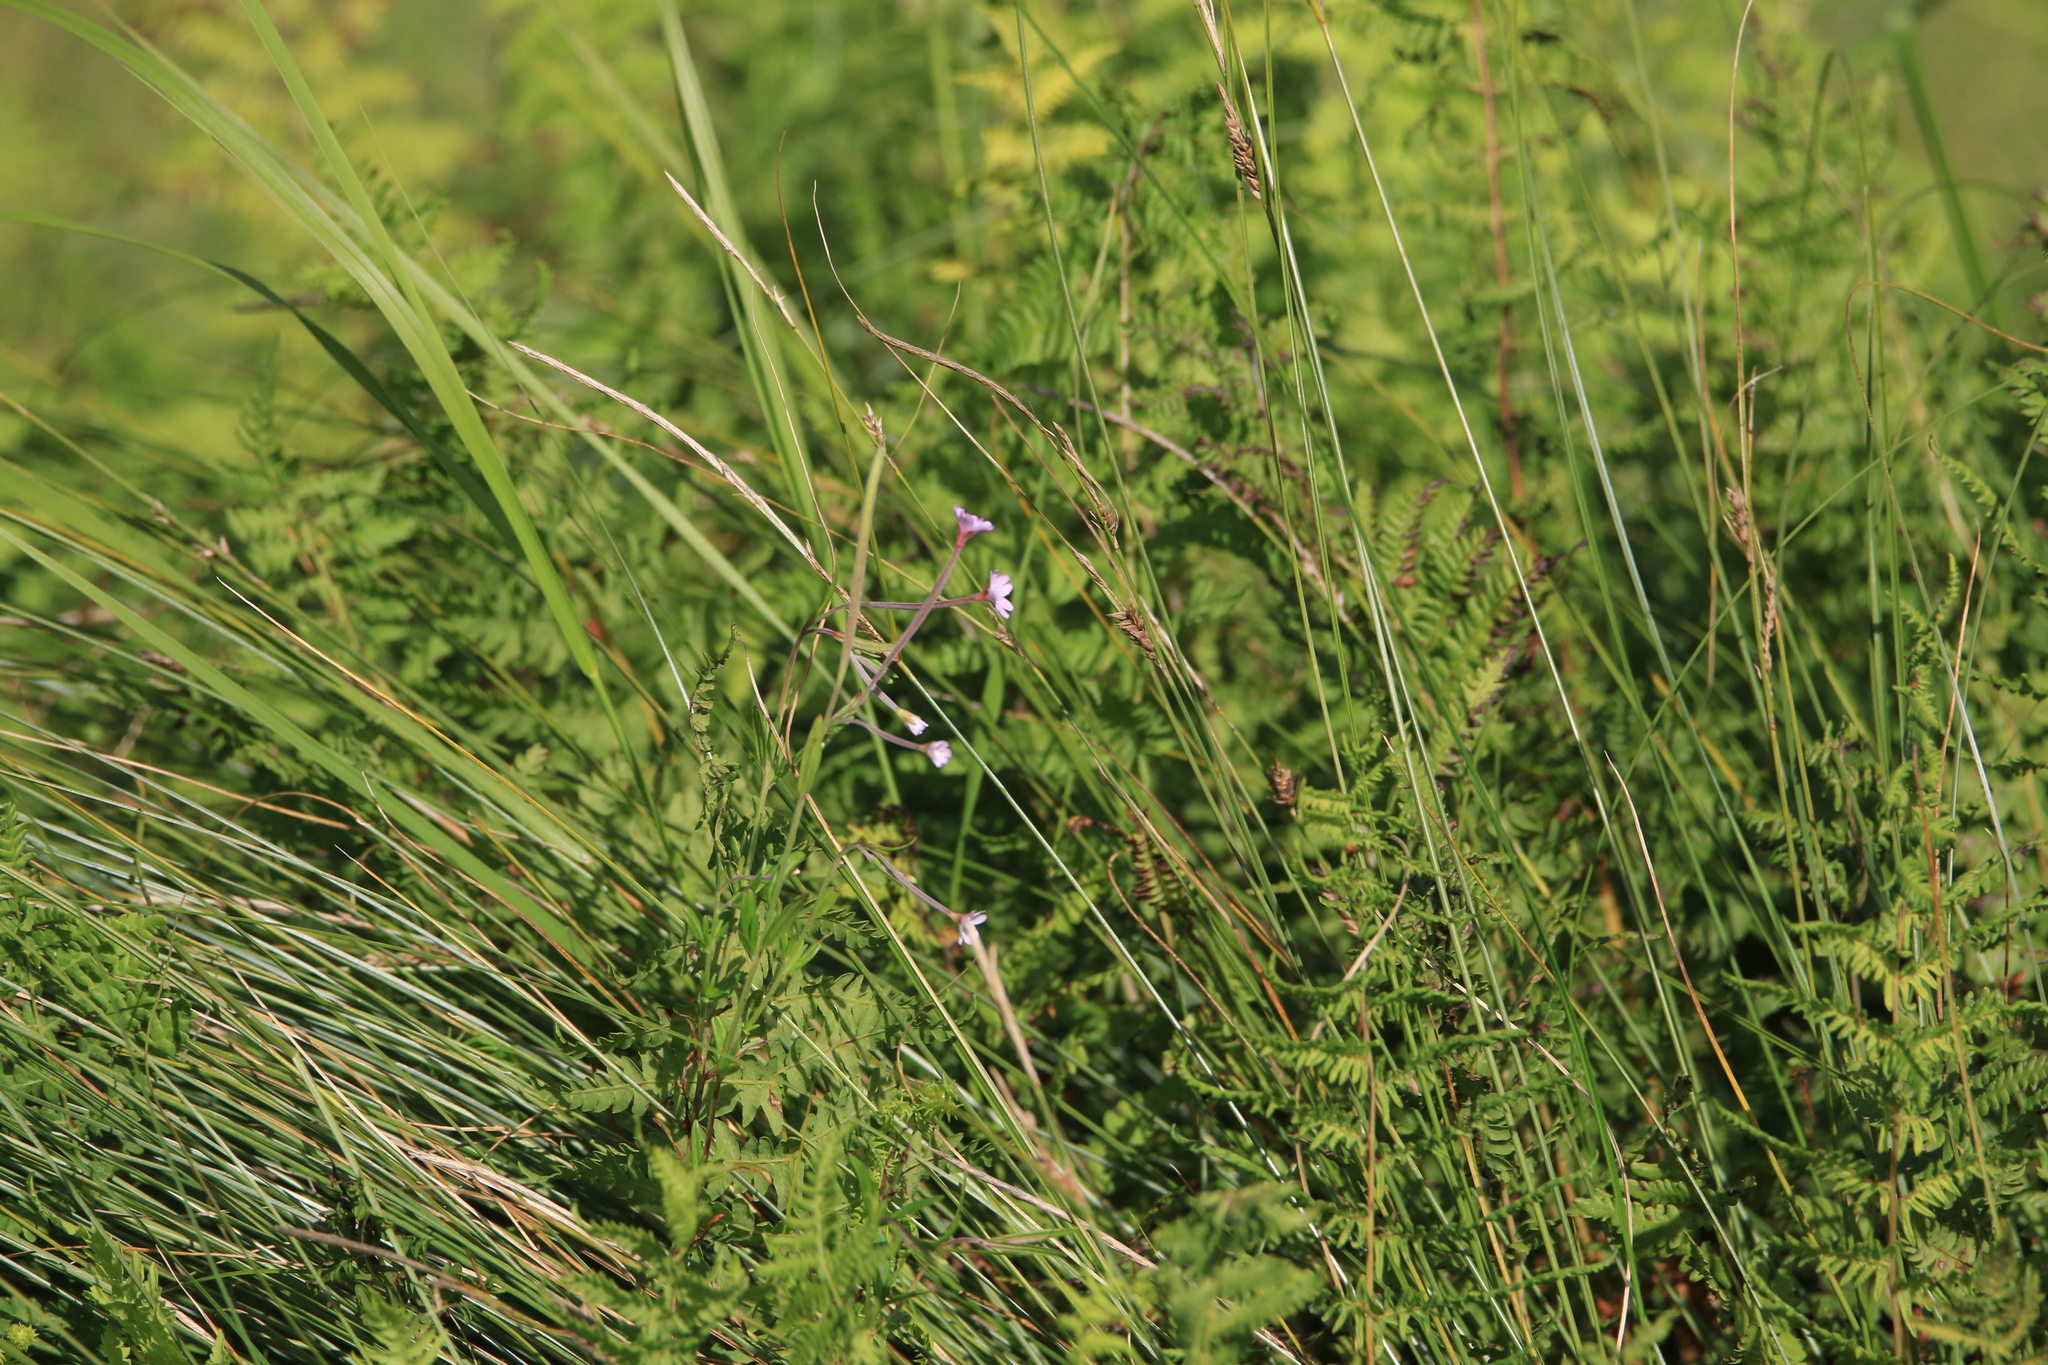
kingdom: Plantae
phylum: Tracheophyta
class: Magnoliopsida
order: Myrtales
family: Onagraceae
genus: Epilobium
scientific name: Epilobium palustre
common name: Marsh willowherb
